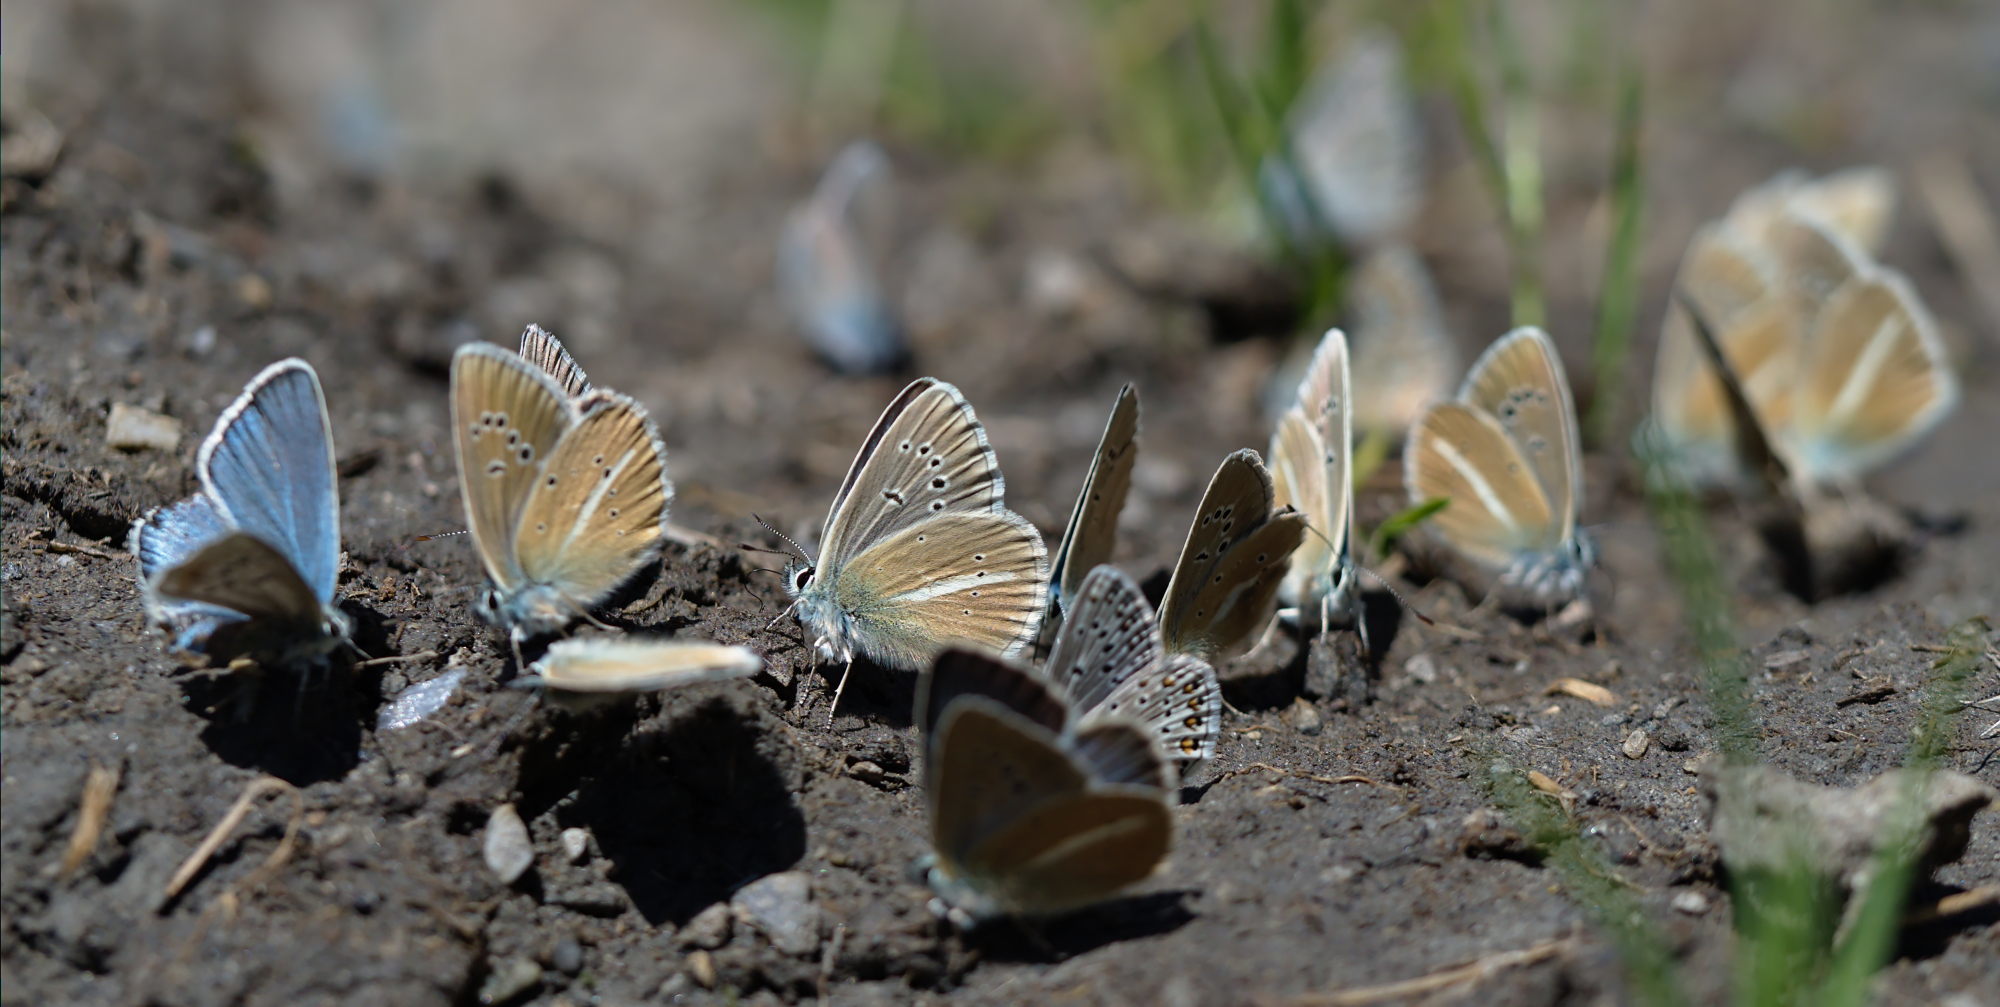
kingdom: Animalia
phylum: Arthropoda
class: Insecta
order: Lepidoptera
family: Lycaenidae
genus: Agrodiaetus
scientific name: Agrodiaetus damon
